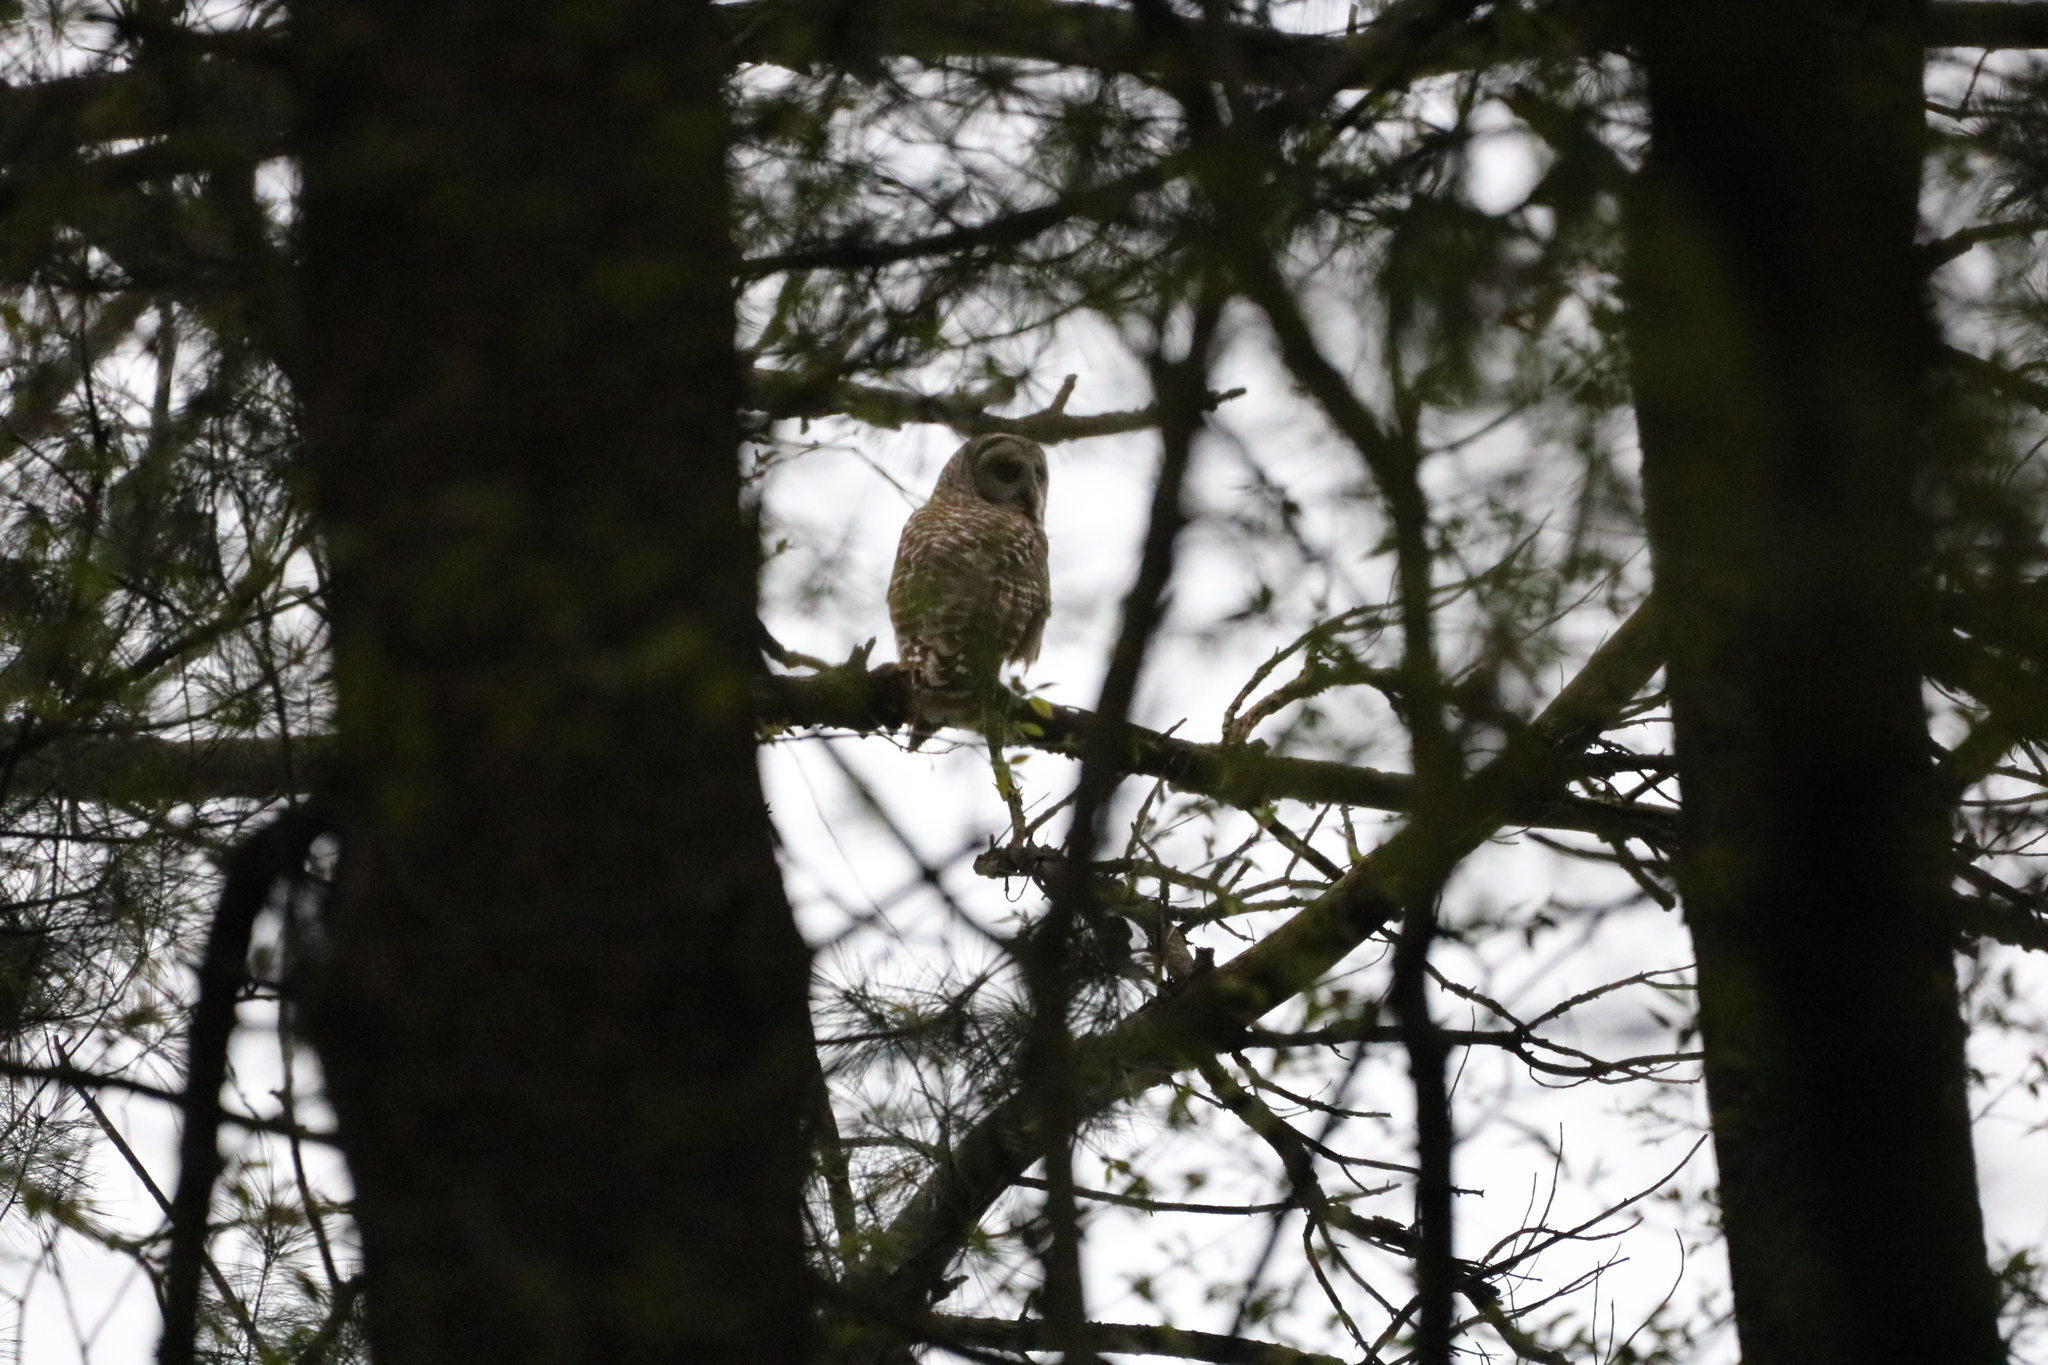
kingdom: Animalia
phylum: Chordata
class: Aves
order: Strigiformes
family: Strigidae
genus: Strix
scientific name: Strix varia
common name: Barred owl
